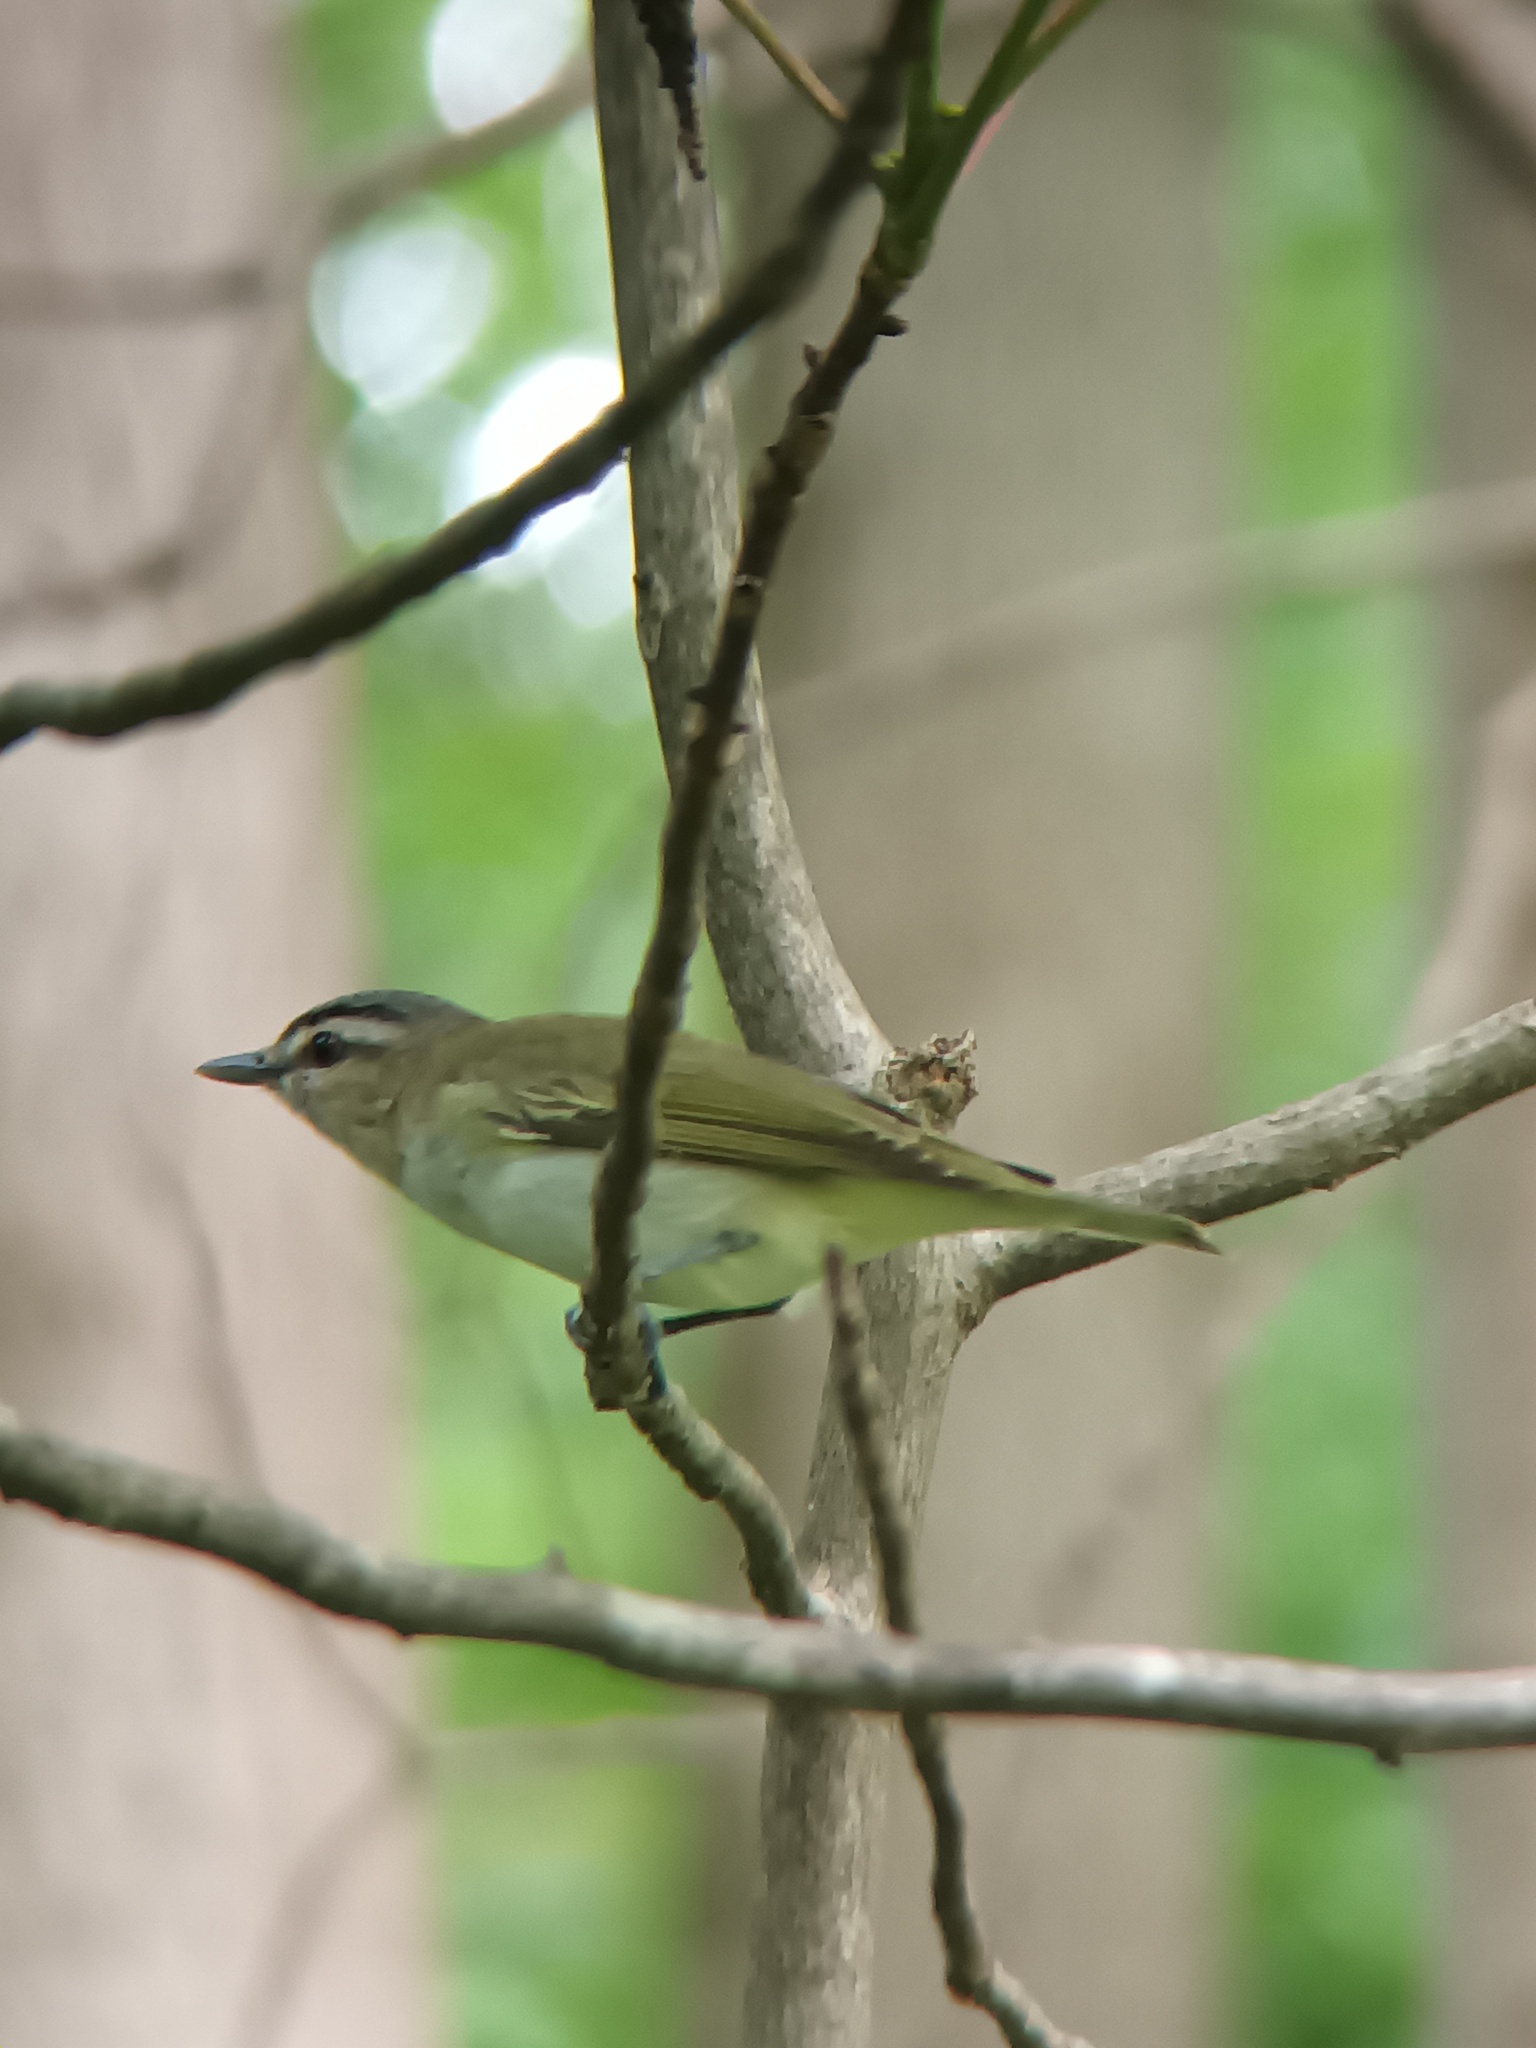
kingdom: Animalia
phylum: Chordata
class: Aves
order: Passeriformes
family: Vireonidae
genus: Vireo
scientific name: Vireo olivaceus
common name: Red-eyed vireo
